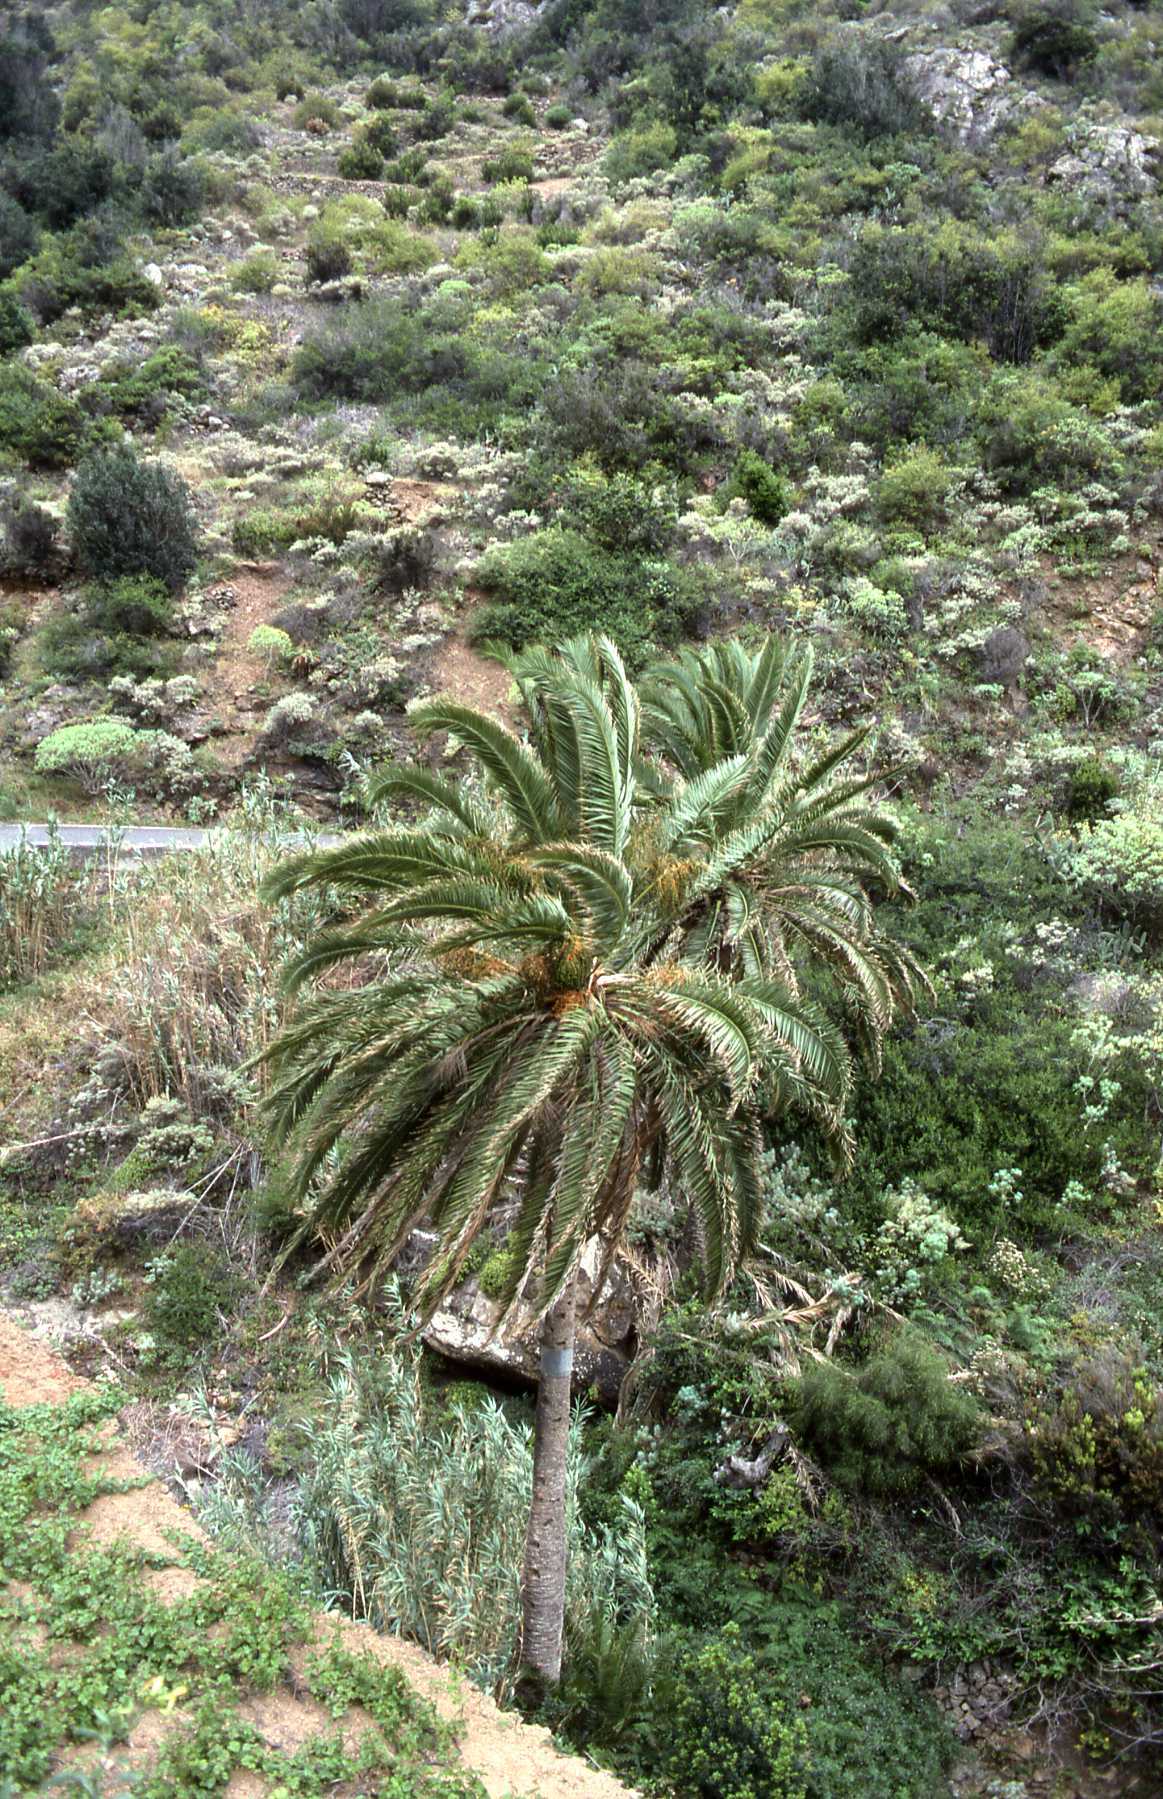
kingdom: Plantae
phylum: Tracheophyta
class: Liliopsida
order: Arecales
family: Arecaceae
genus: Phoenix
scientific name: Phoenix canariensis
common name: Canary island date palm
